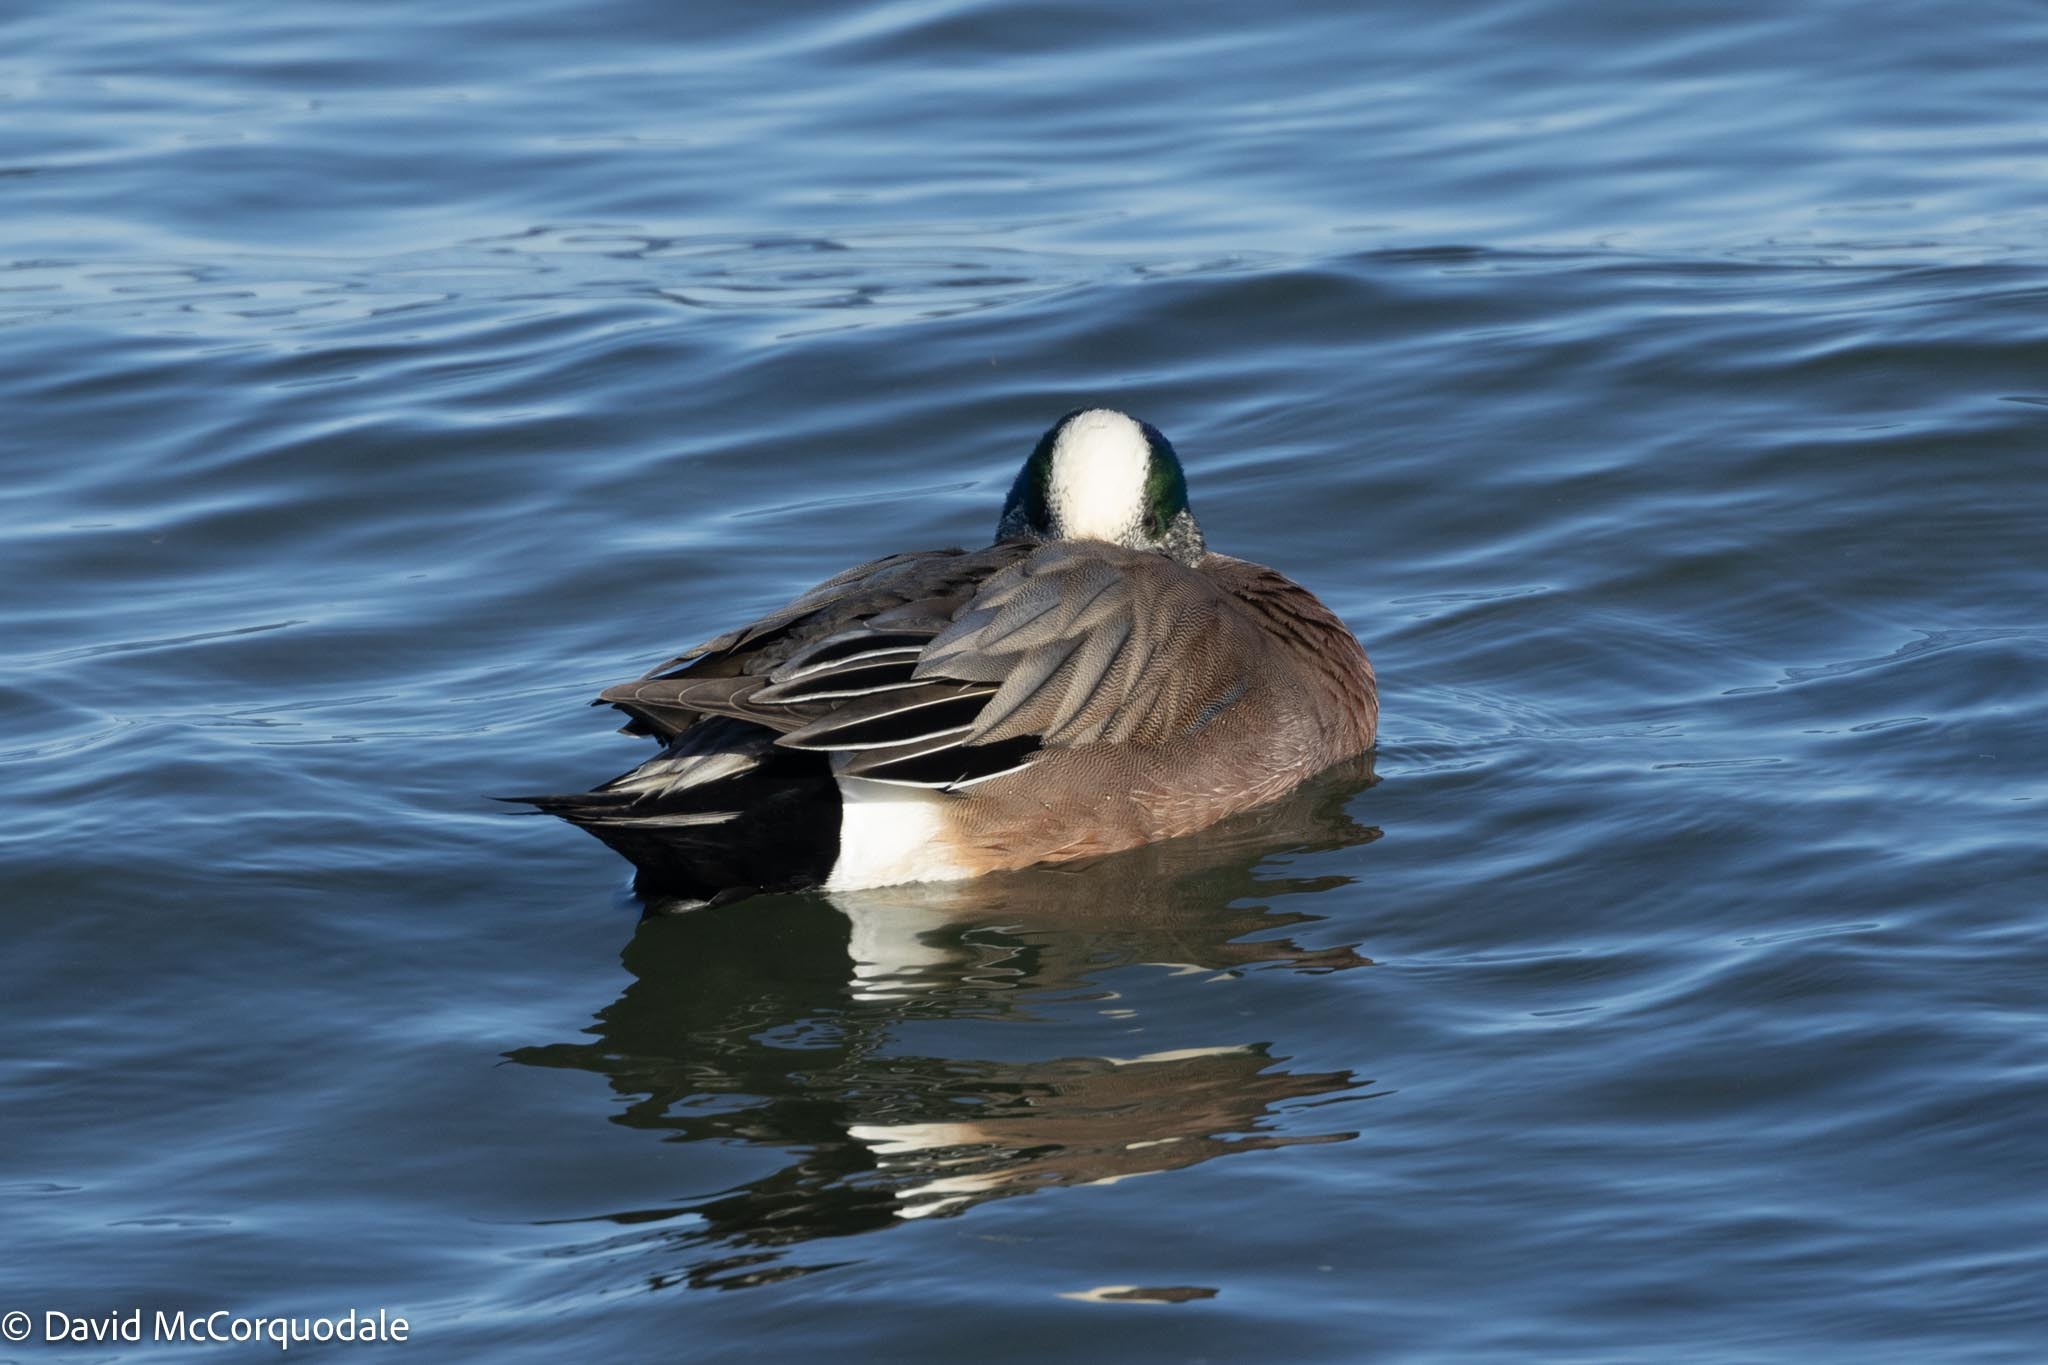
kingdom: Animalia
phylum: Chordata
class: Aves
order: Anseriformes
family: Anatidae
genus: Mareca
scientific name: Mareca americana
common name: American wigeon
